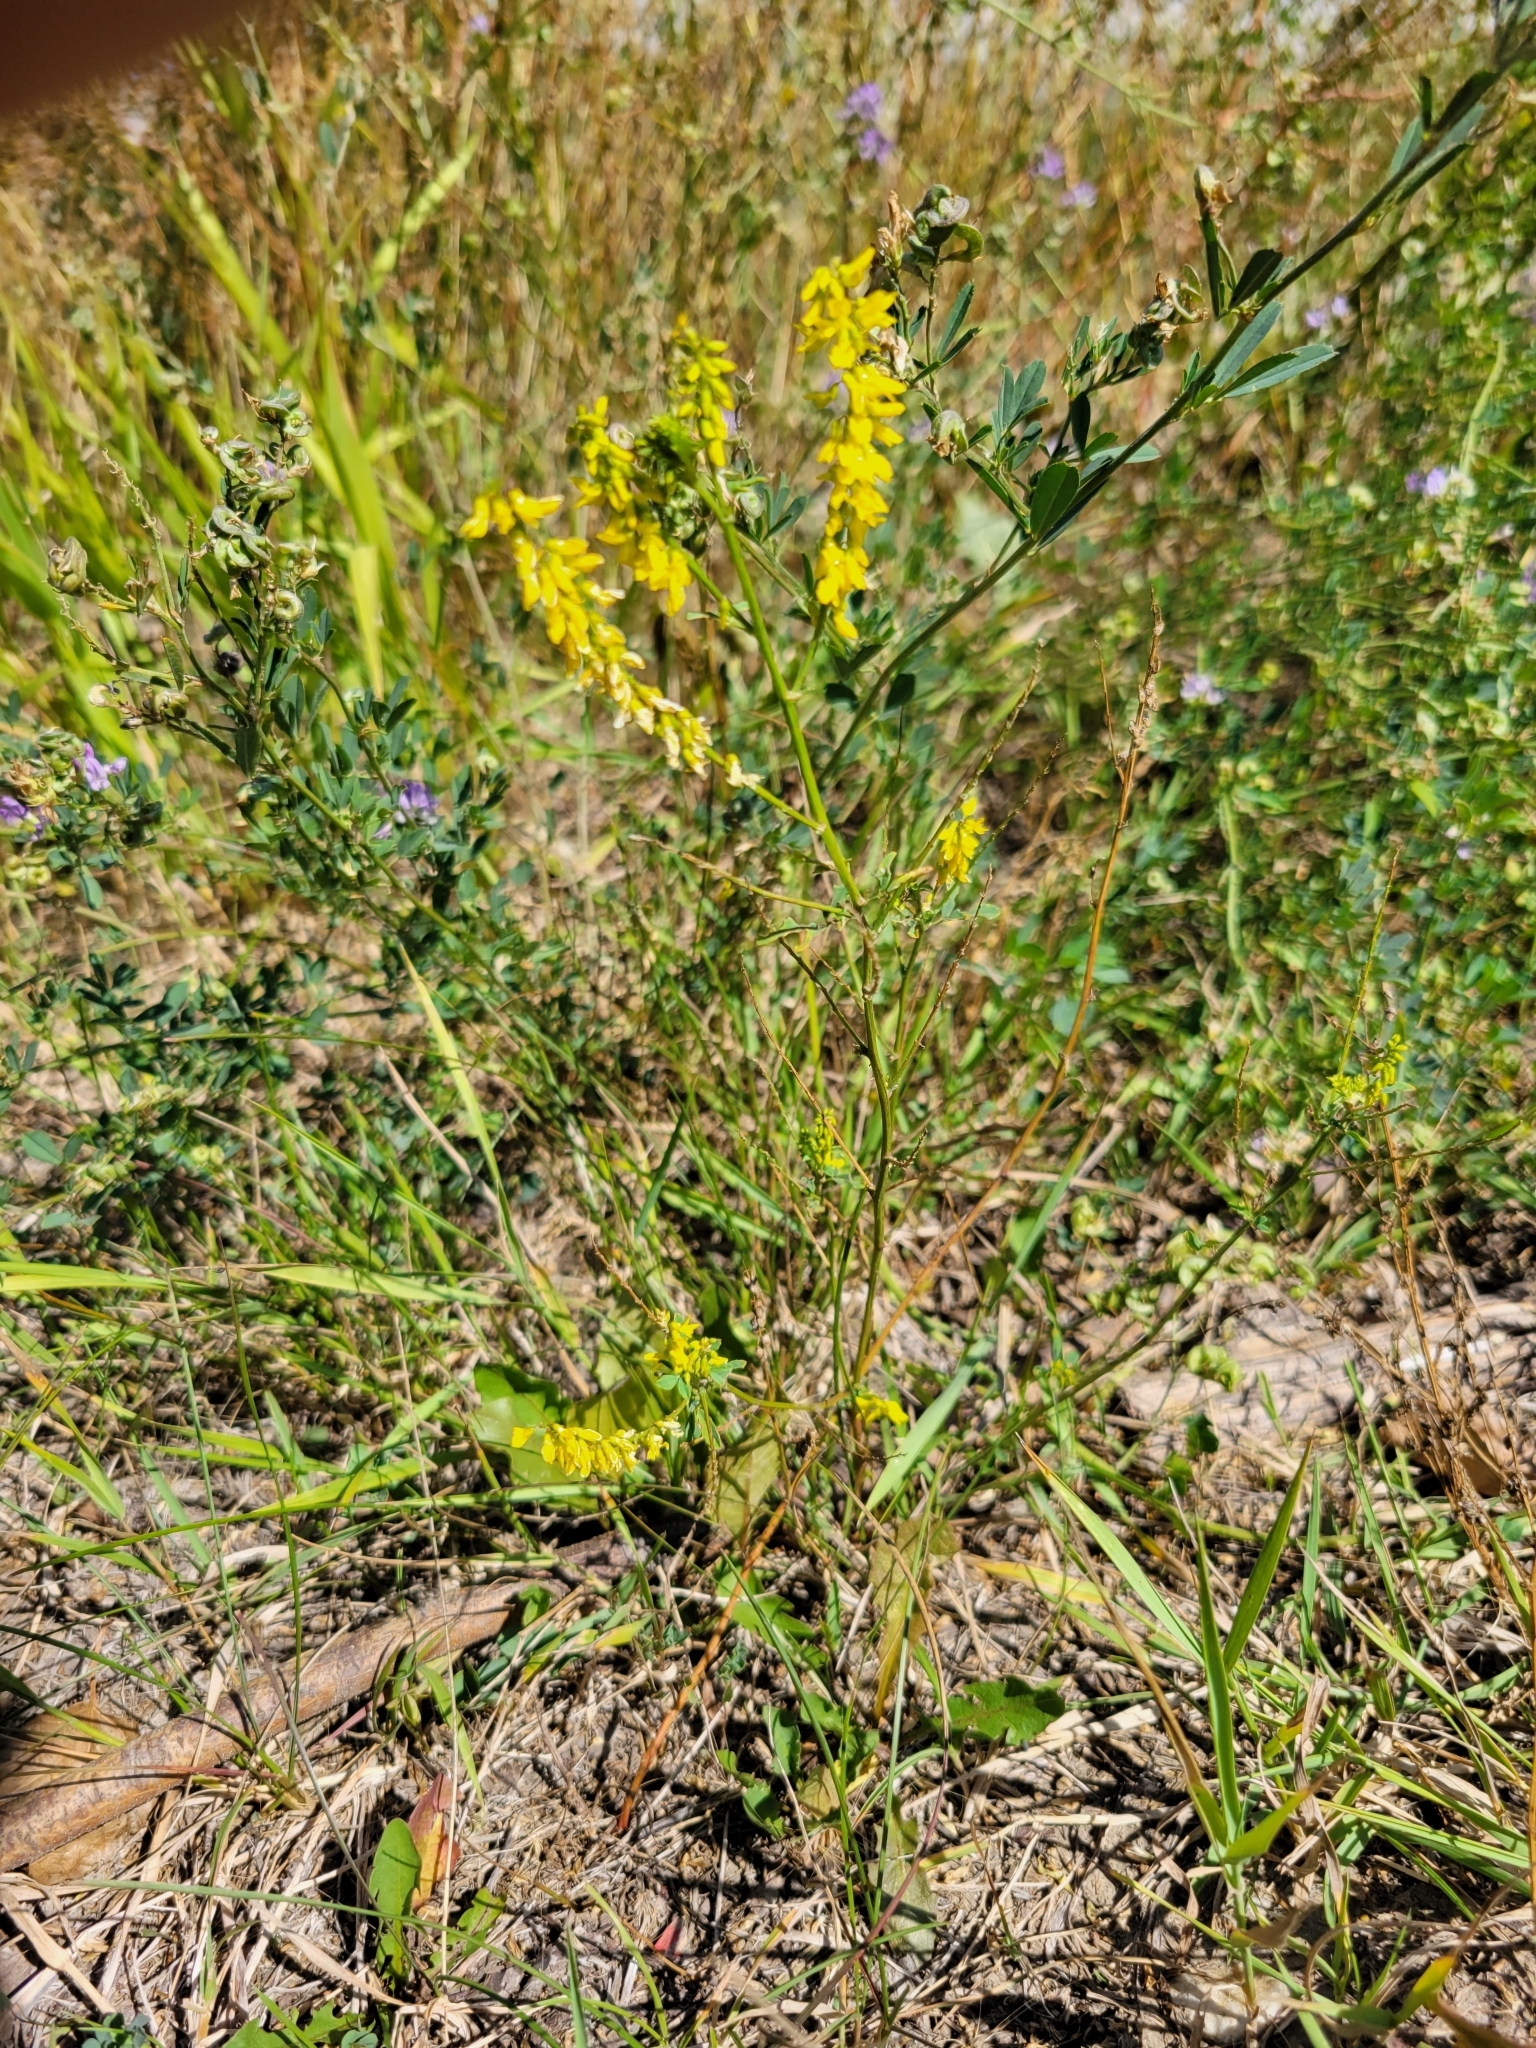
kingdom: Plantae
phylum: Tracheophyta
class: Magnoliopsida
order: Fabales
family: Fabaceae
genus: Melilotus
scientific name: Melilotus officinalis
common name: Sweetclover
